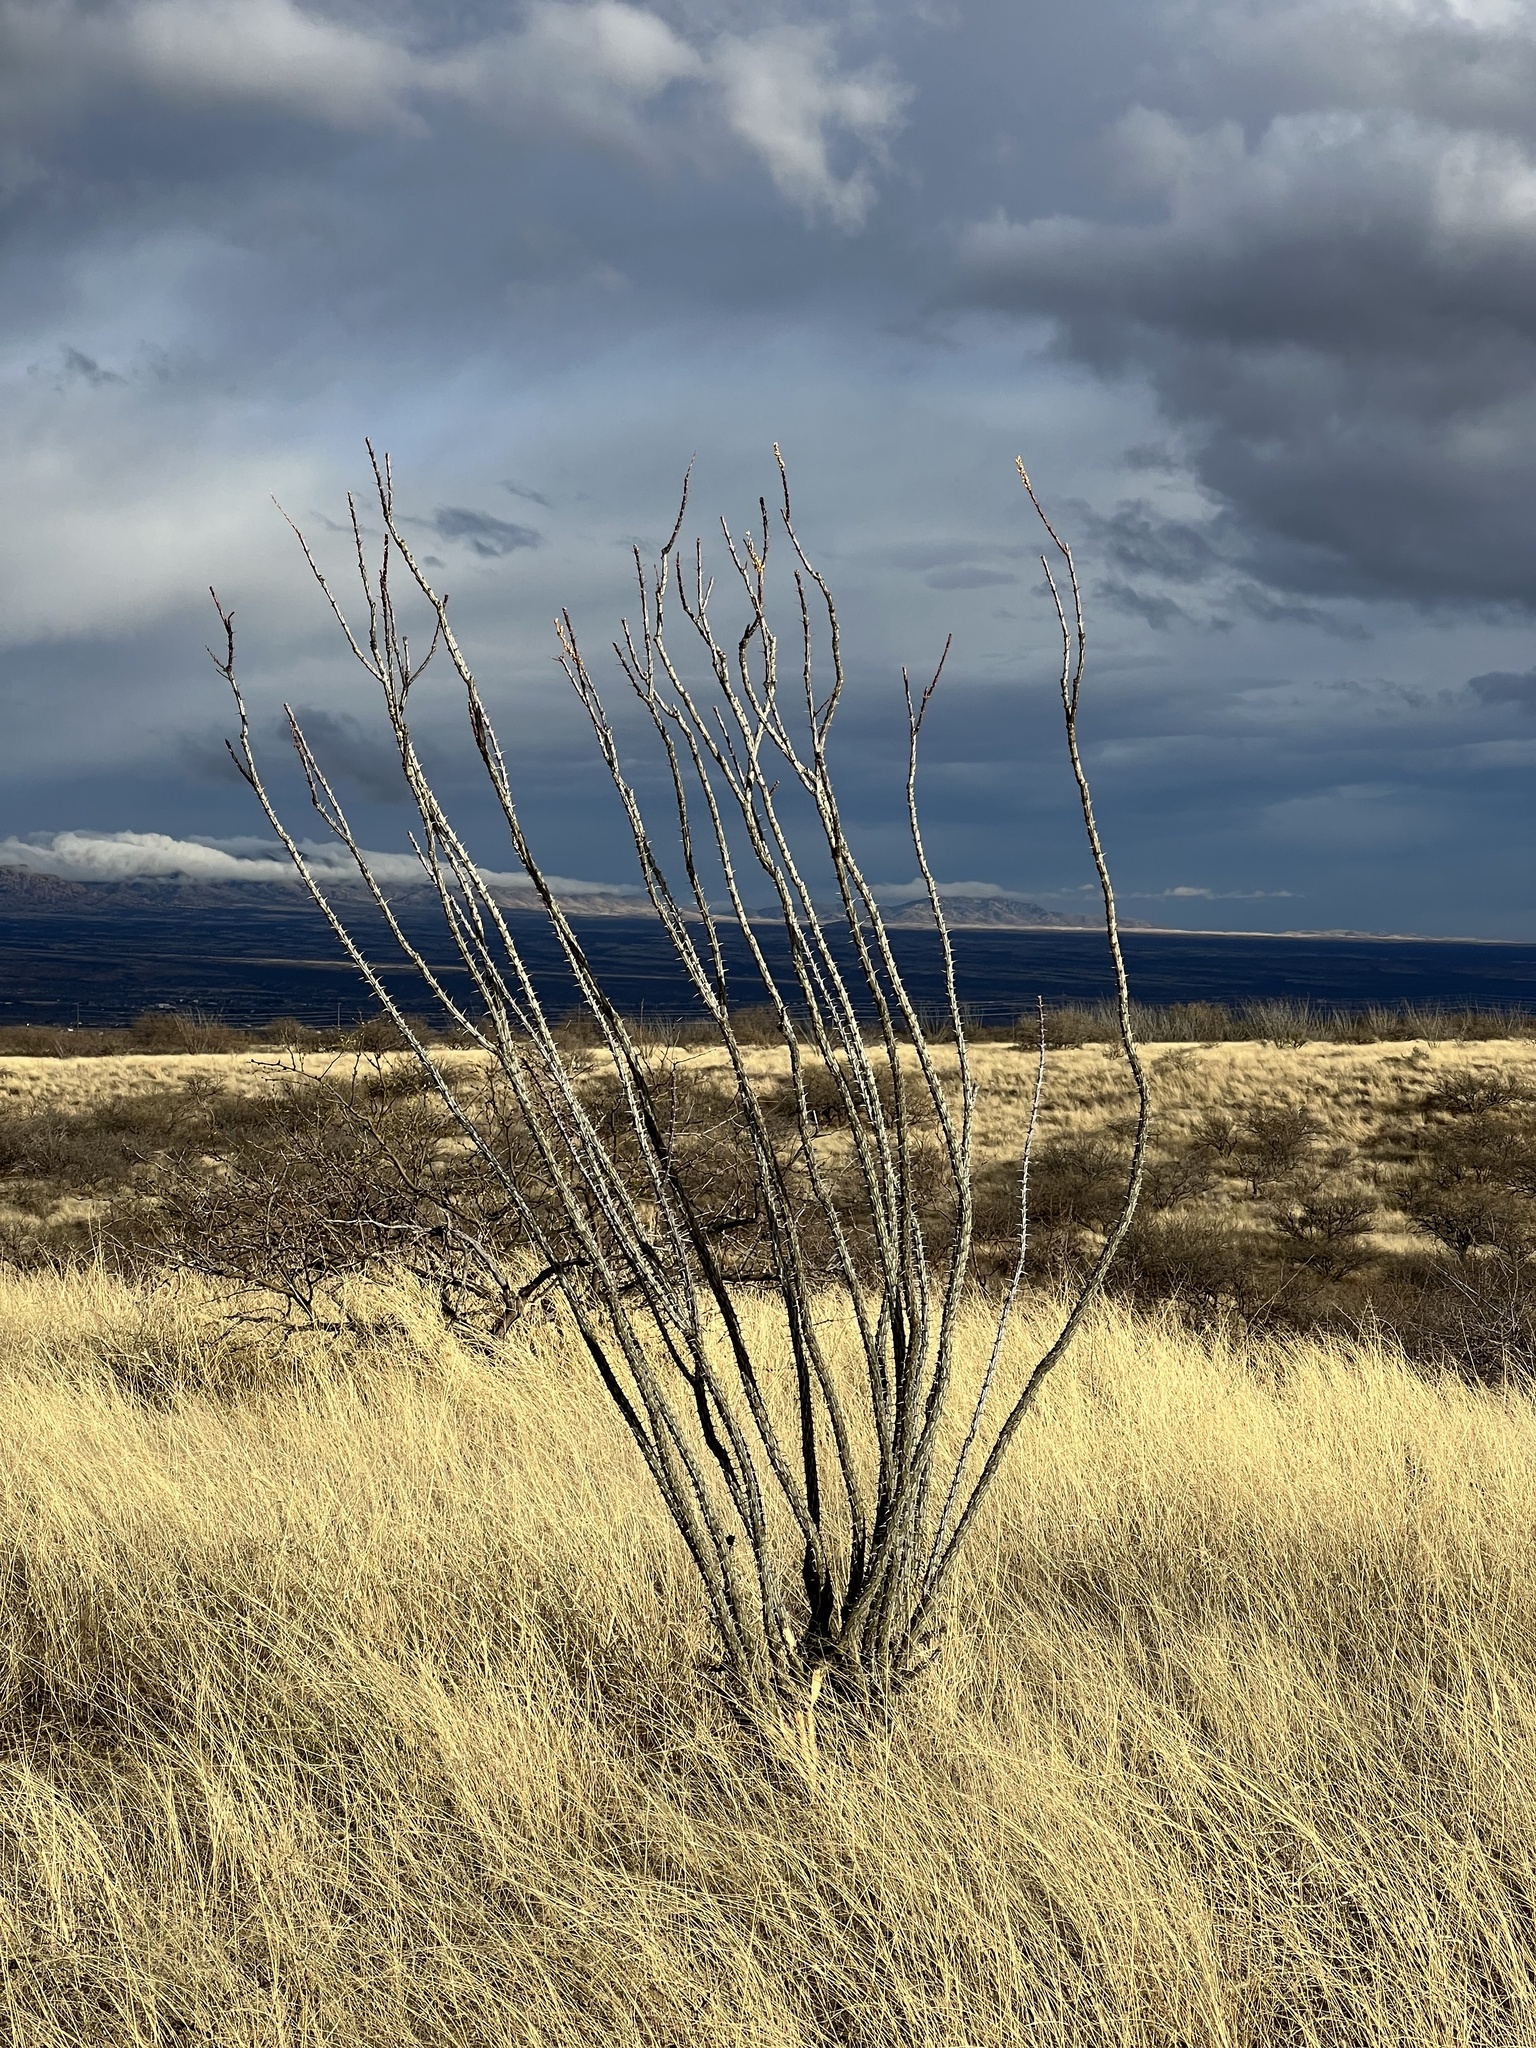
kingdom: Plantae
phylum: Tracheophyta
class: Magnoliopsida
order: Ericales
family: Fouquieriaceae
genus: Fouquieria
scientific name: Fouquieria splendens
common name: Vine-cactus
